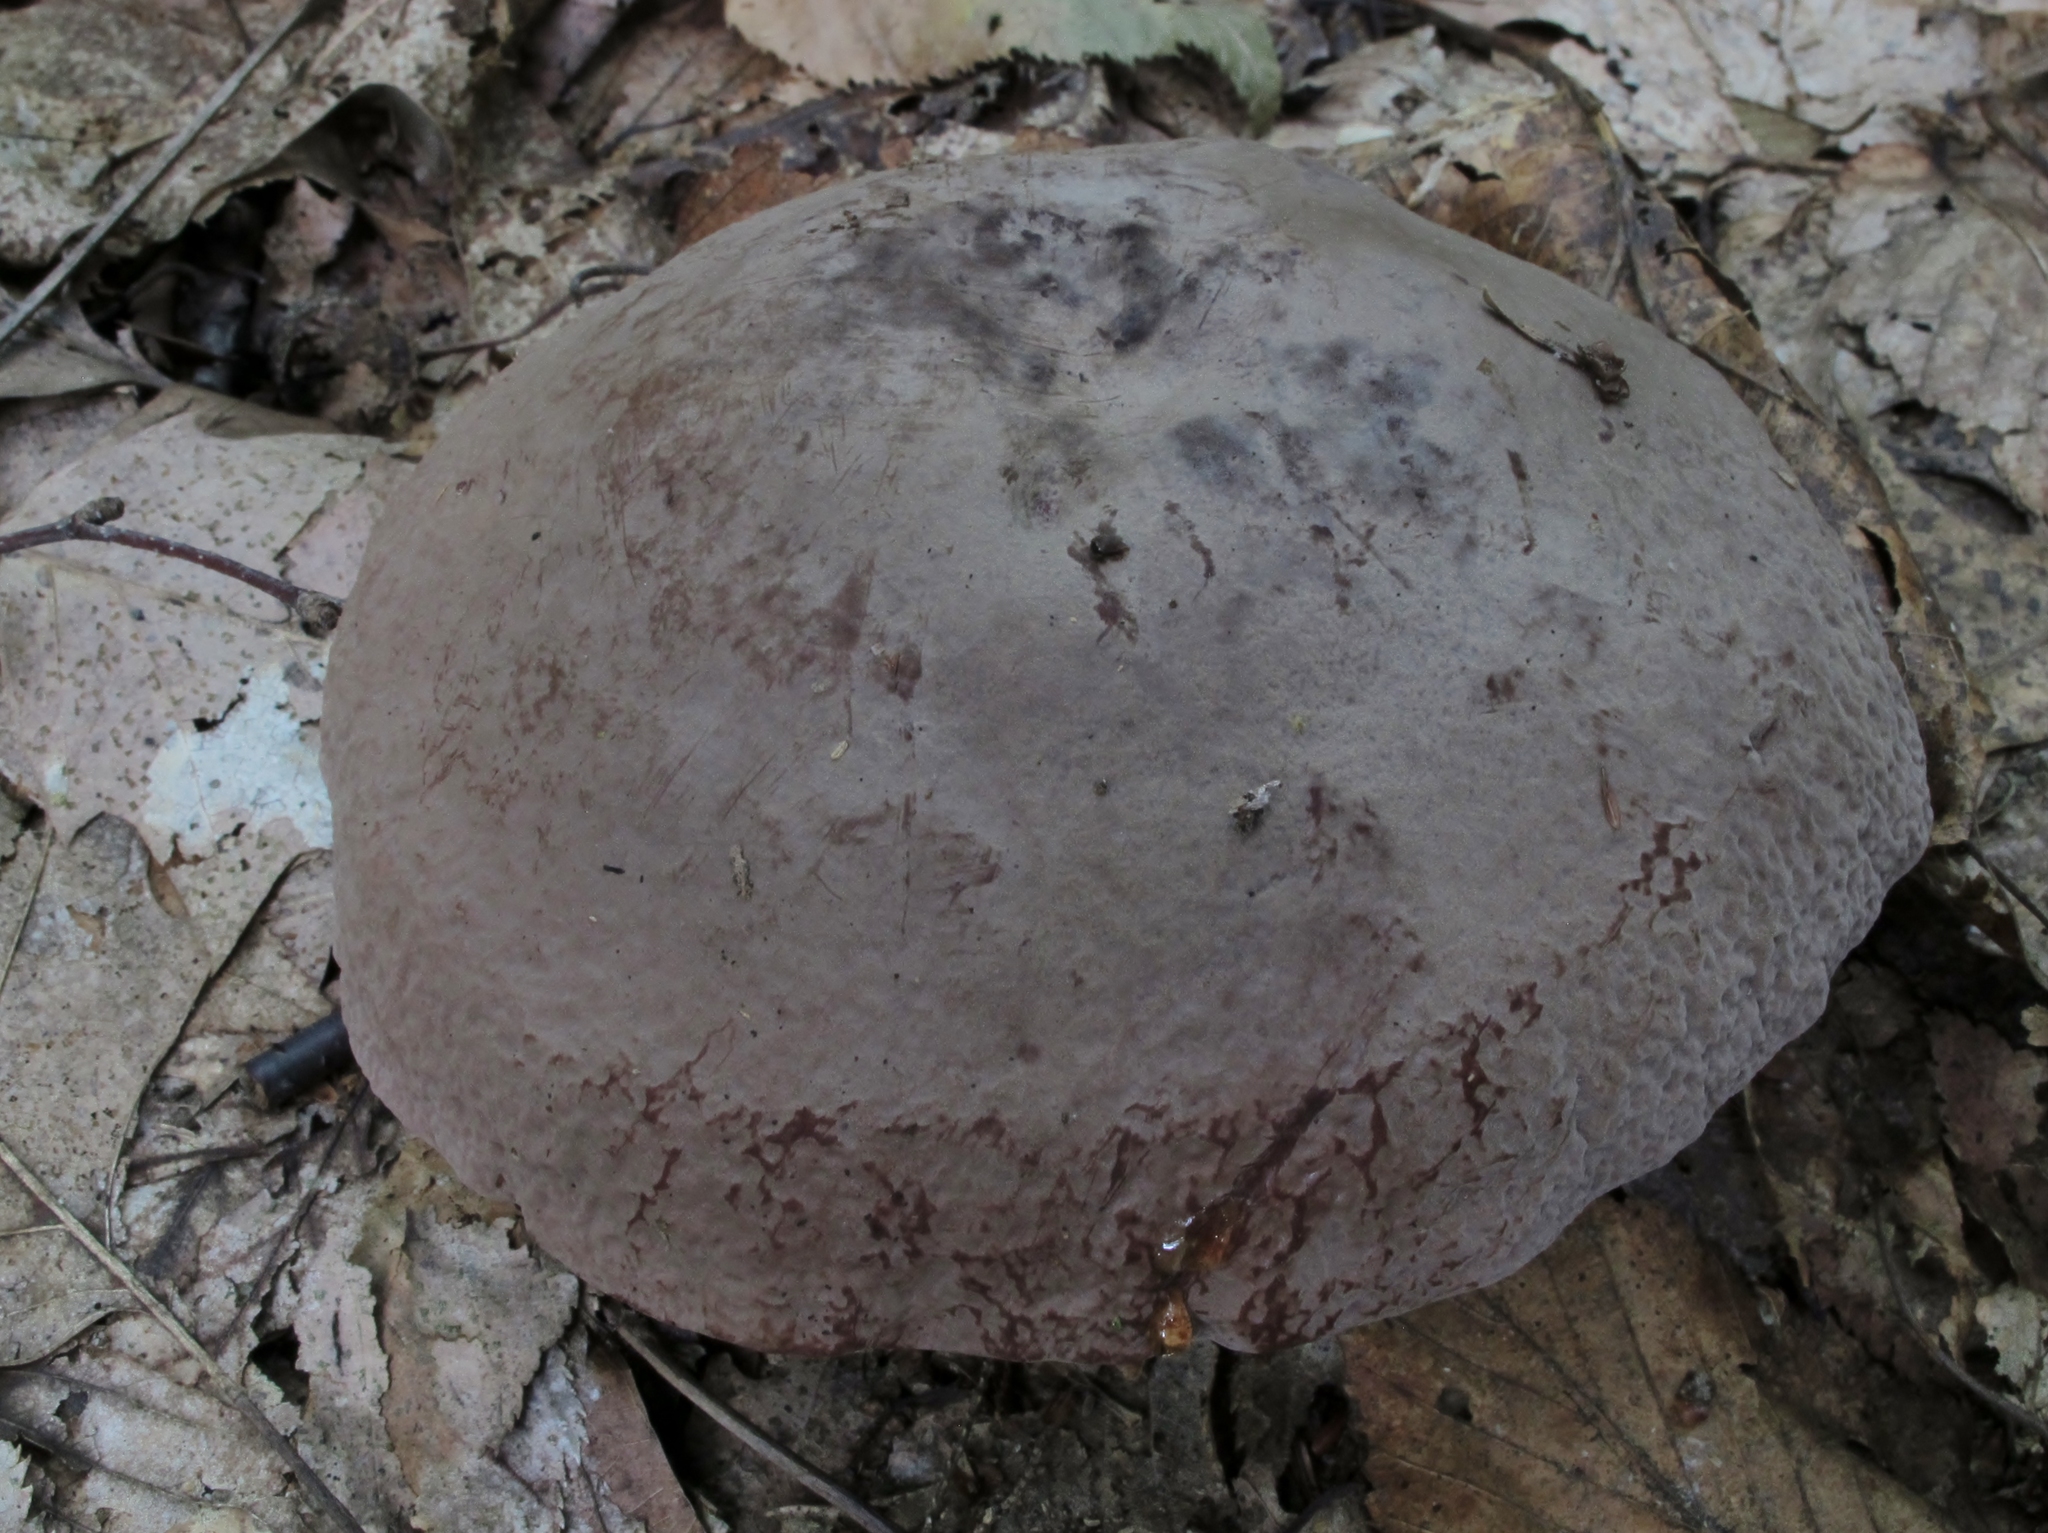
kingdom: Fungi
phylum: Basidiomycota
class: Agaricomycetes
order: Russulales
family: Russulaceae
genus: Lactarius
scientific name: Lactarius corrugis
